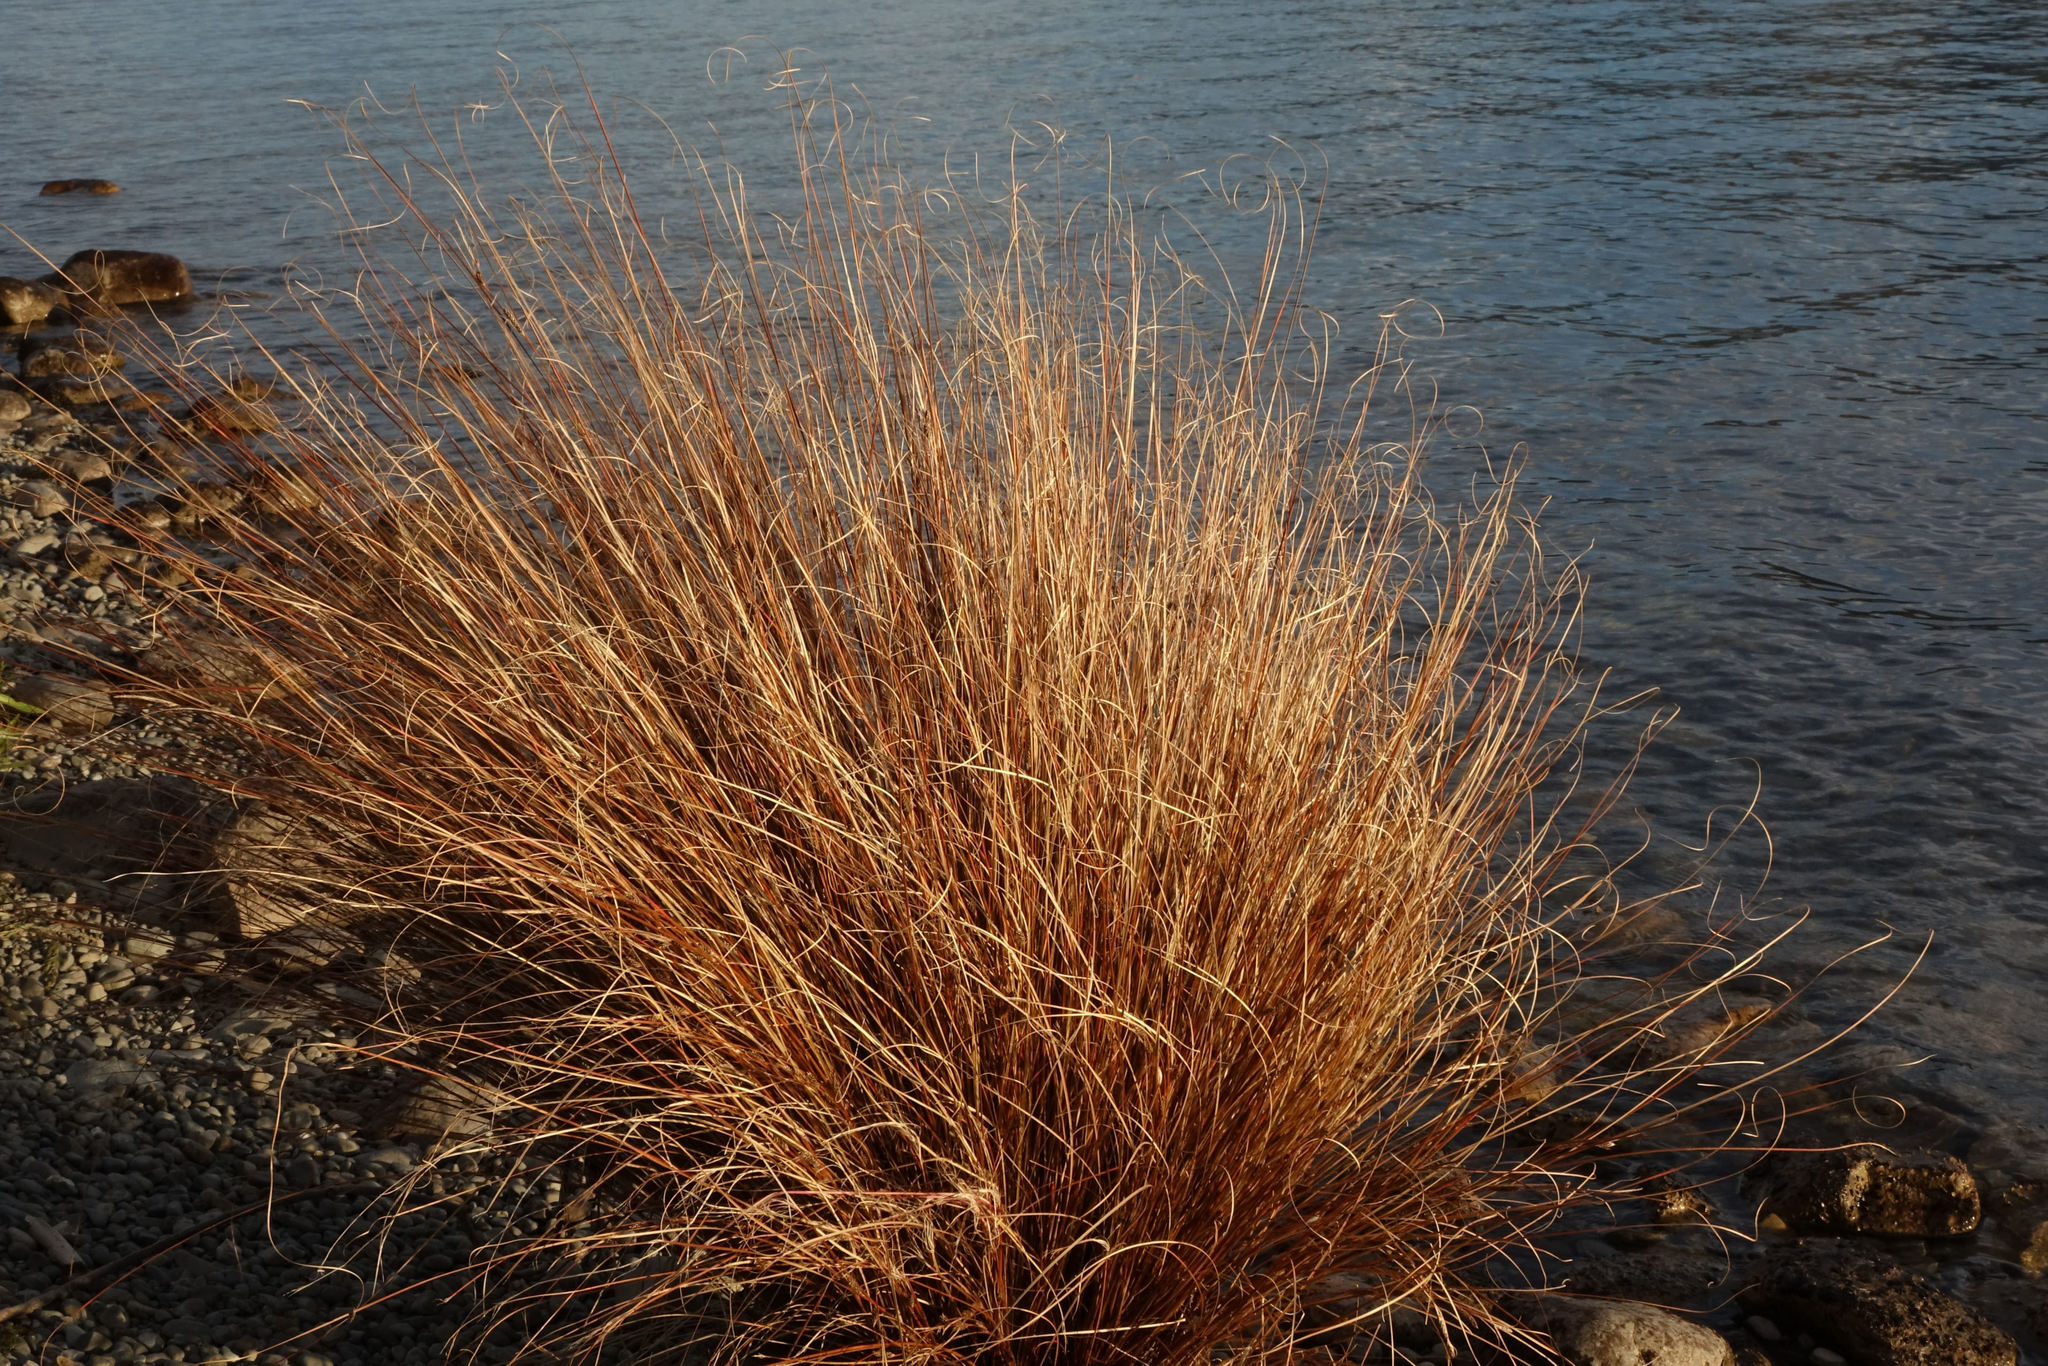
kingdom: Plantae
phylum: Tracheophyta
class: Liliopsida
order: Poales
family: Cyperaceae
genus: Carex
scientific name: Carex buchananii
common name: Leatherleaf sedge
